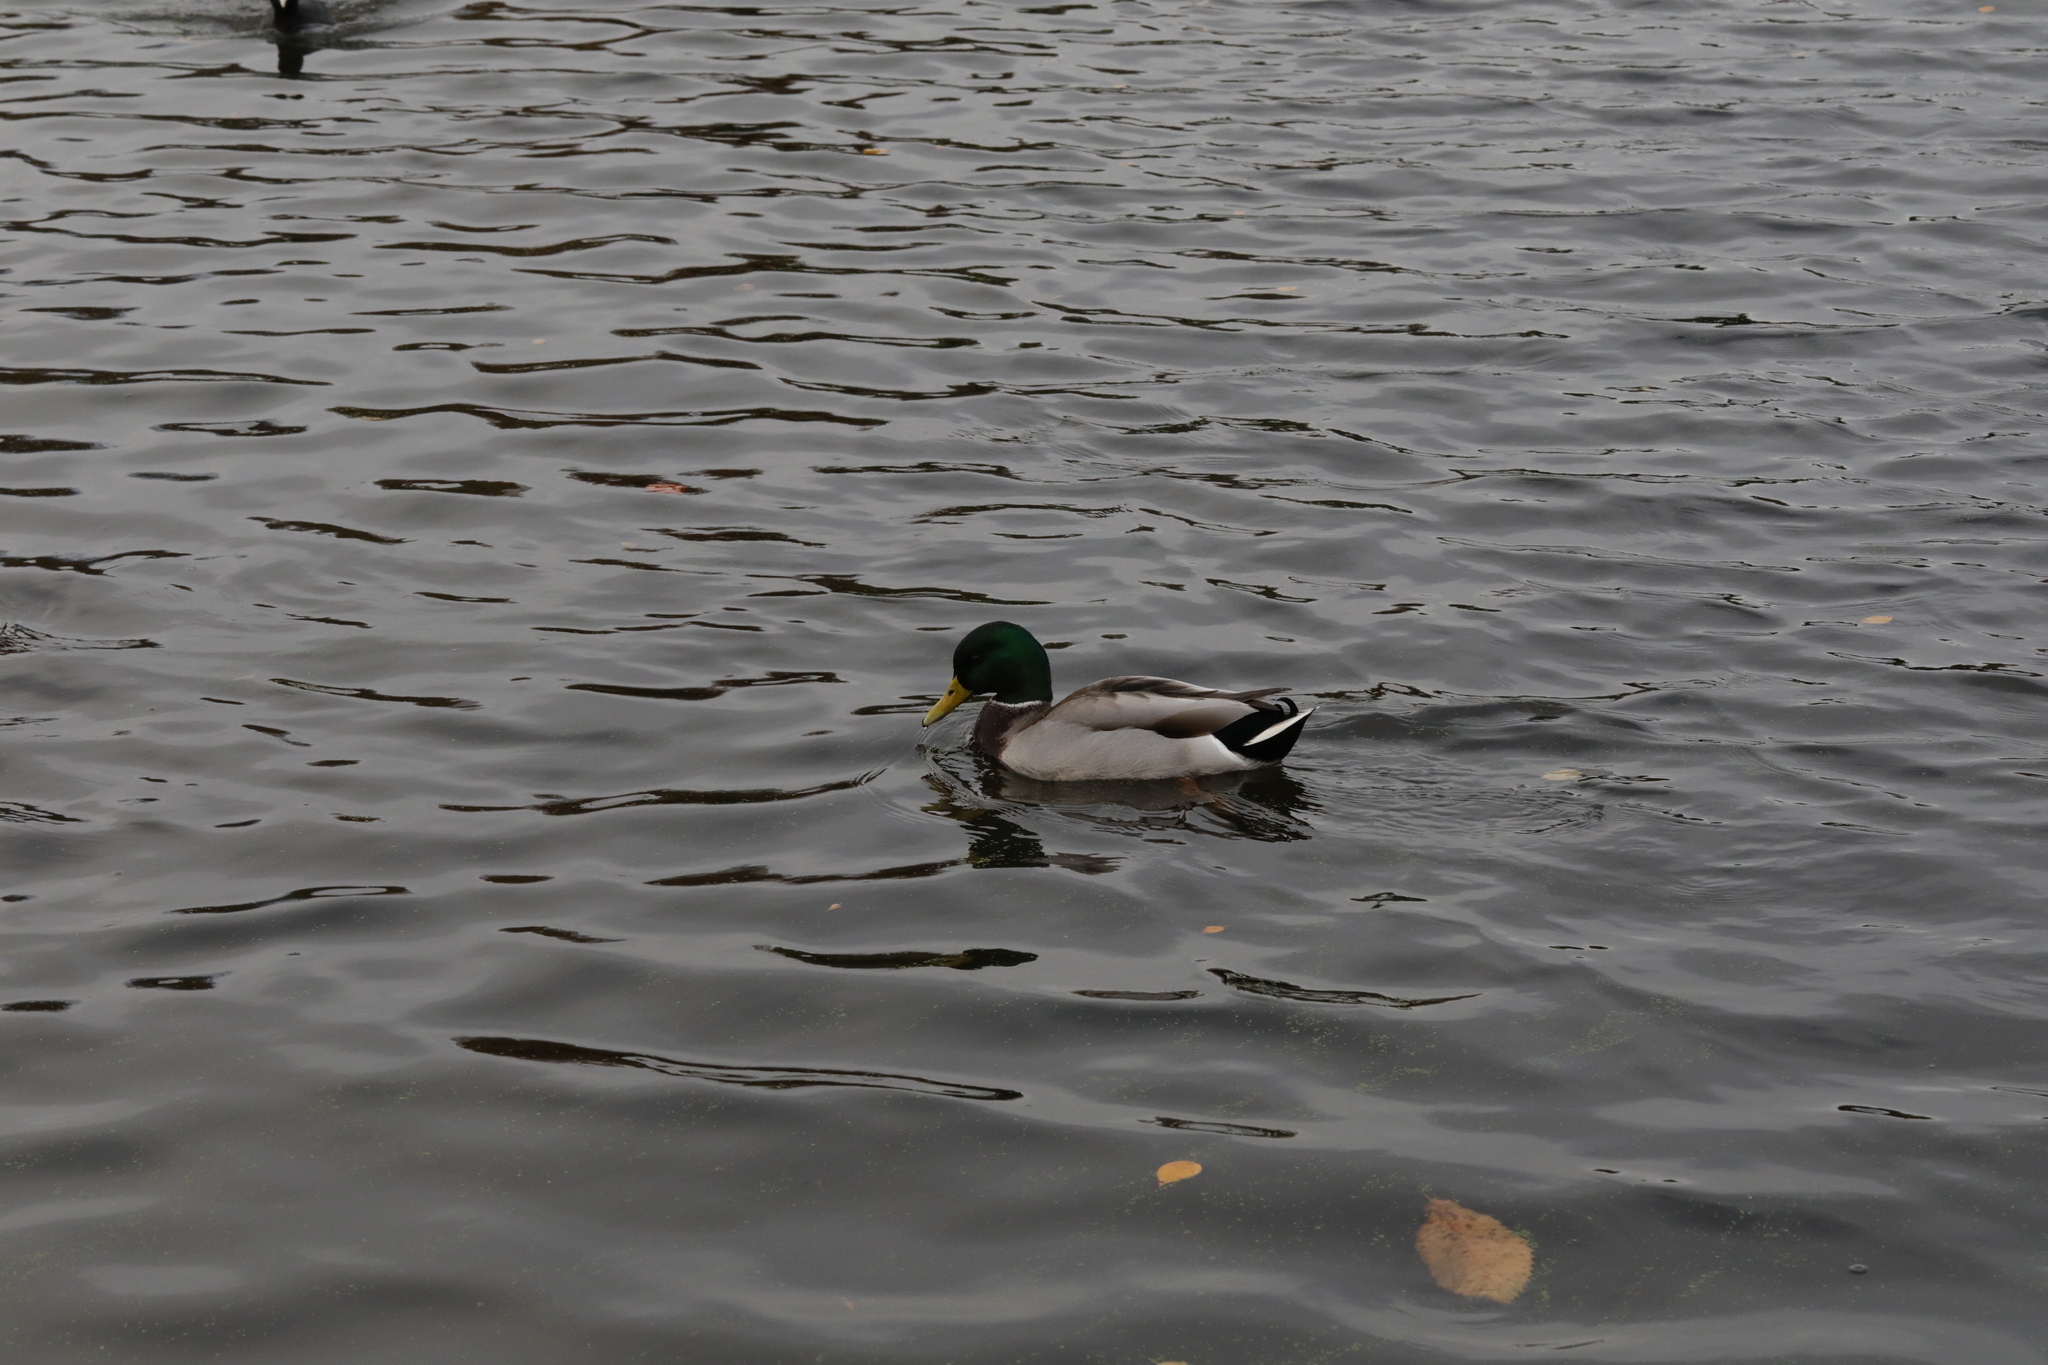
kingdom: Animalia
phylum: Chordata
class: Aves
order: Anseriformes
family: Anatidae
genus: Anas
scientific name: Anas platyrhynchos
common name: Mallard
